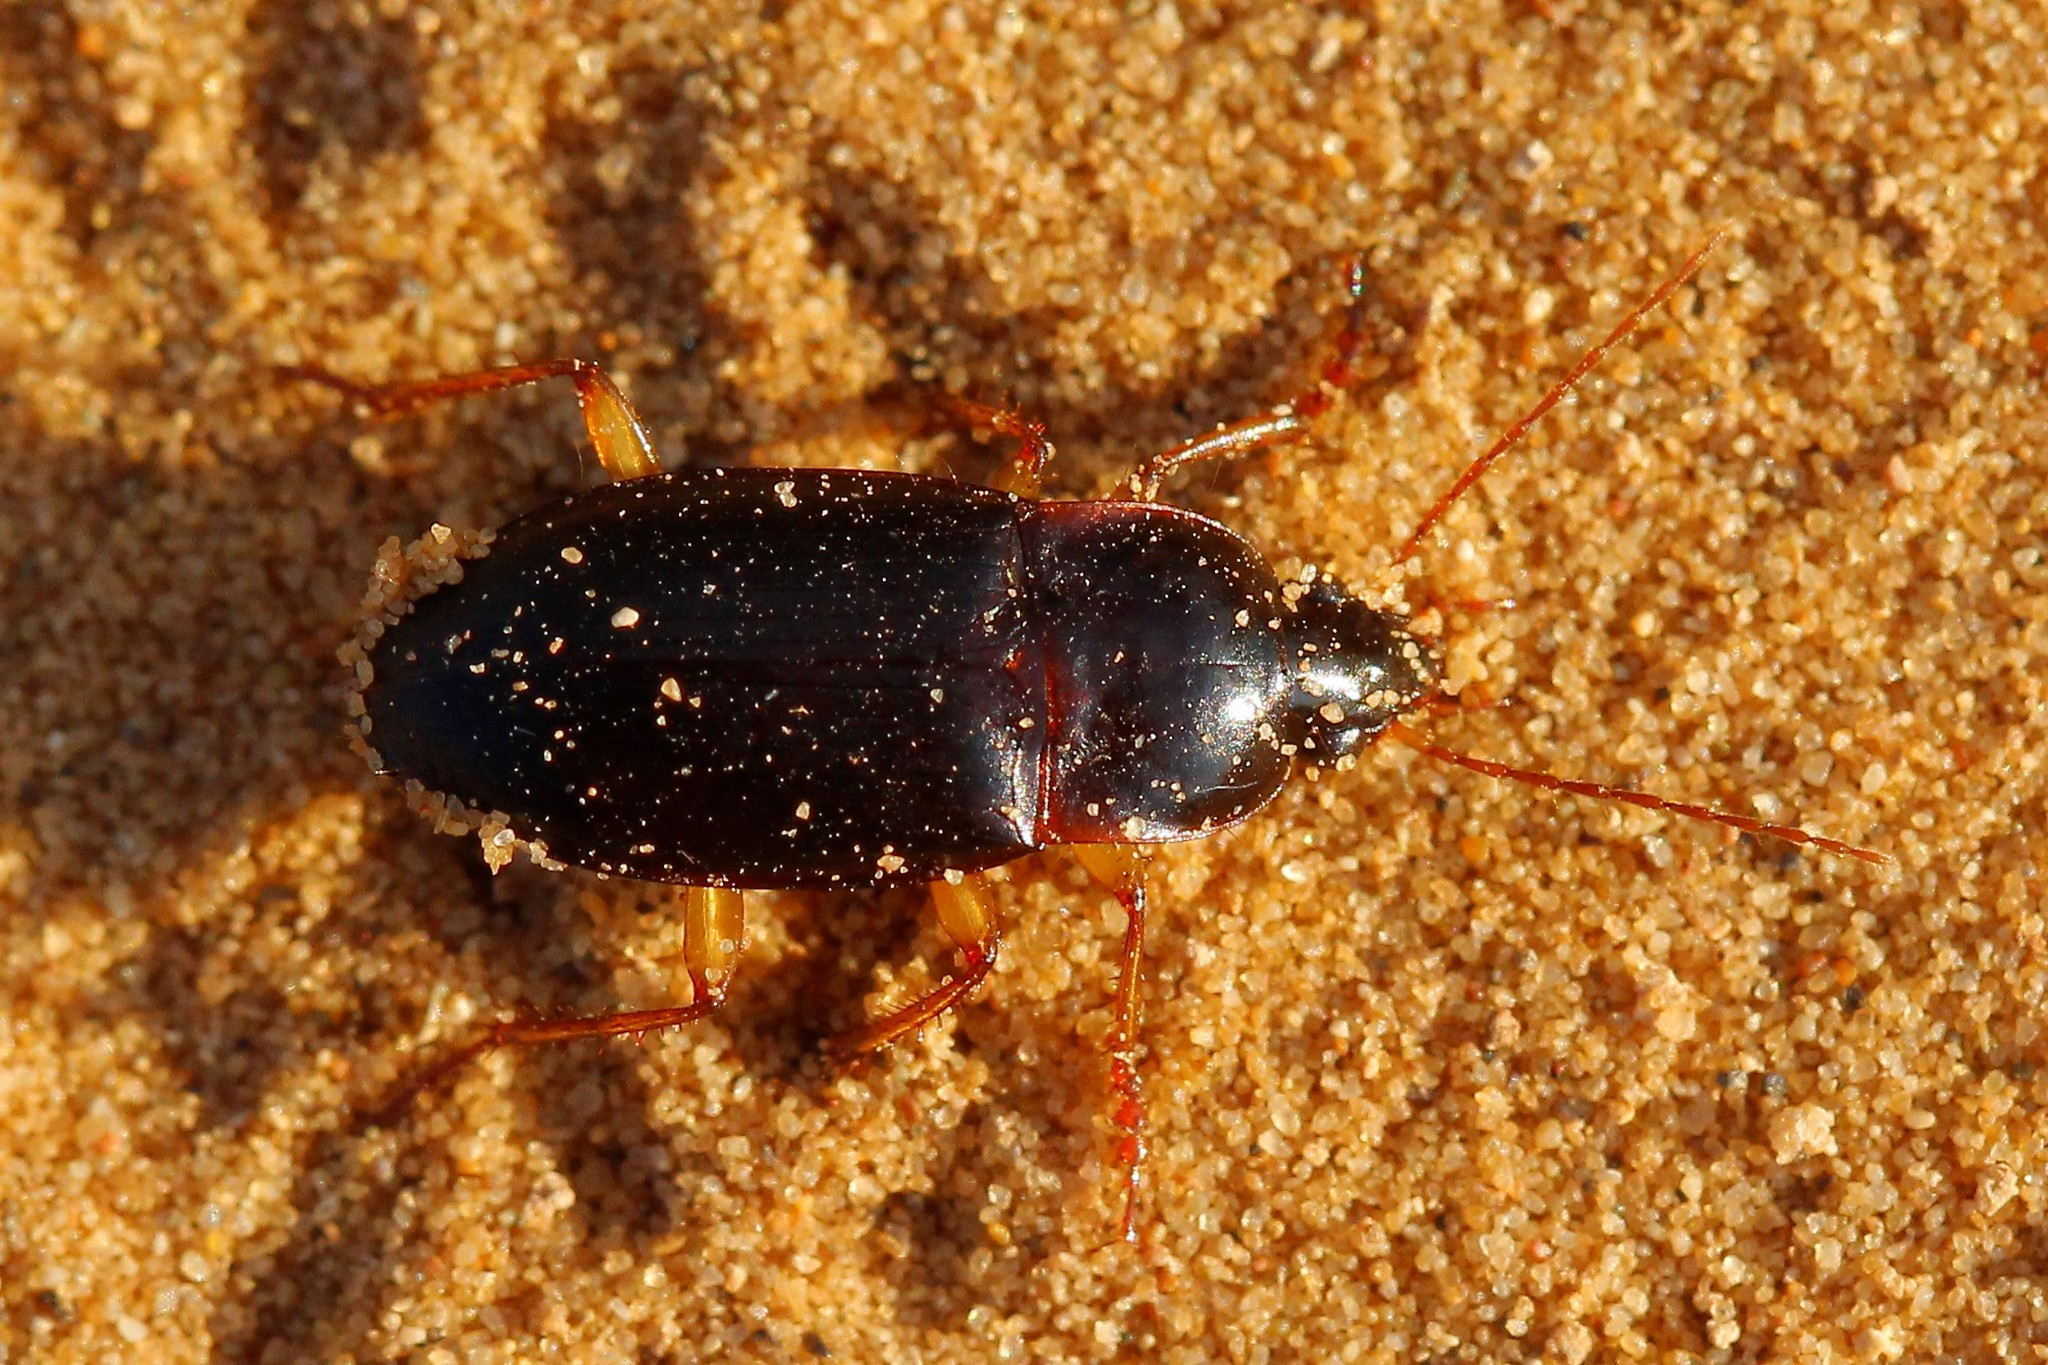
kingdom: Animalia
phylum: Arthropoda
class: Insecta
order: Coleoptera
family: Carabidae
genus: Calathus
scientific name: Calathus ambiguus
